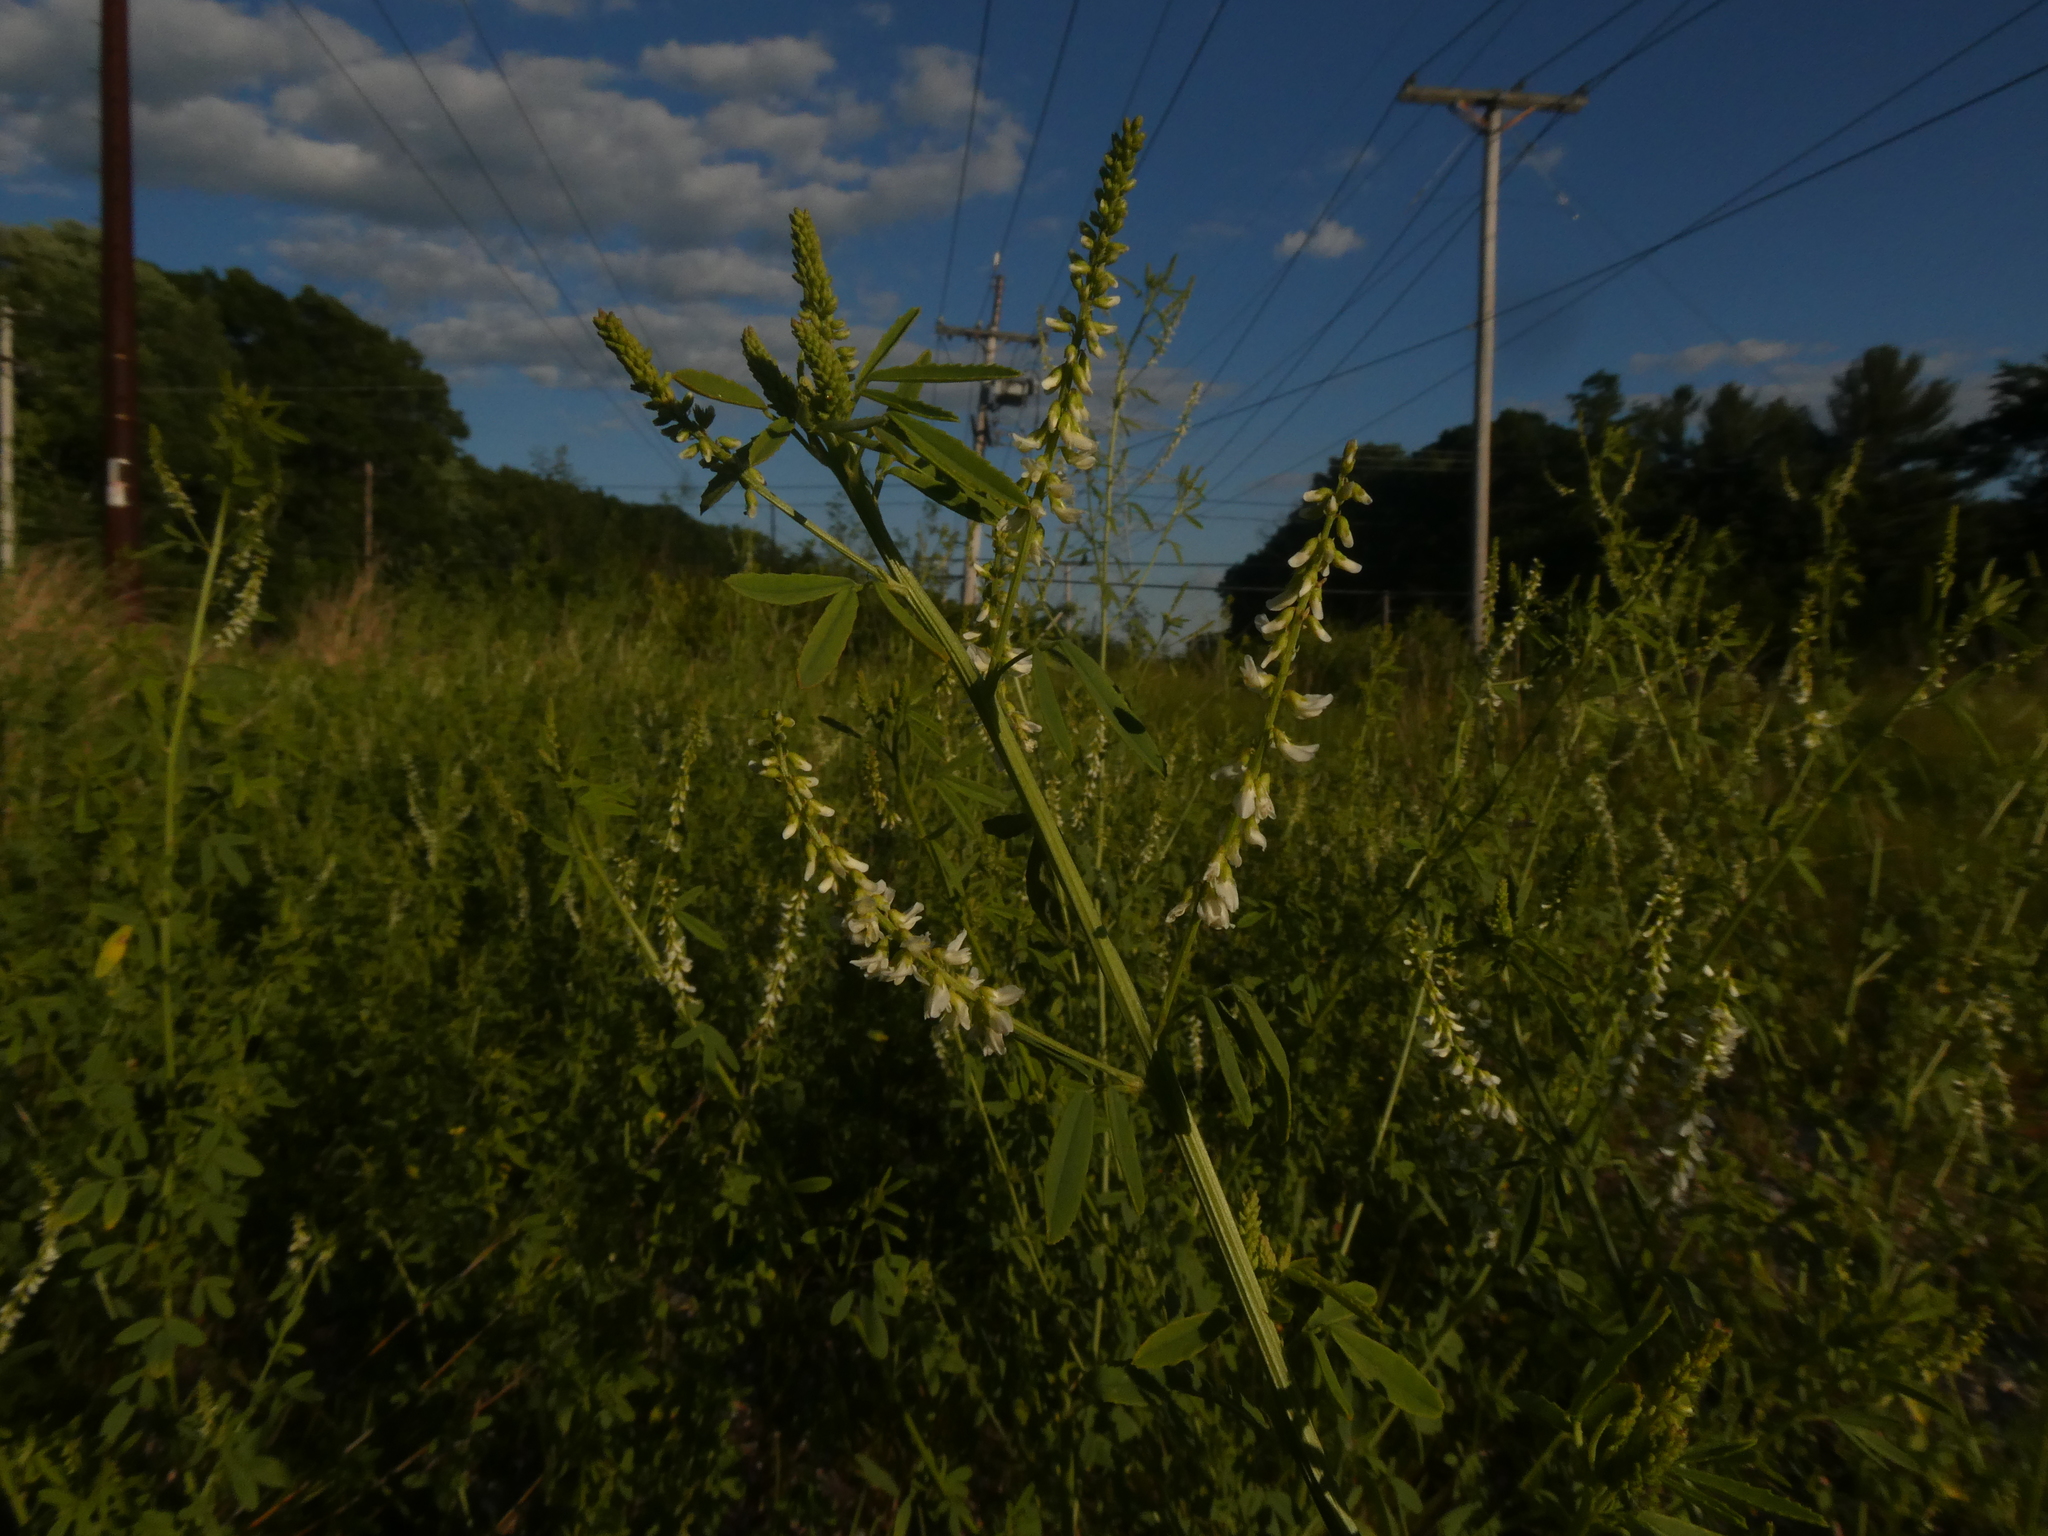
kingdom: Plantae
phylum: Tracheophyta
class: Magnoliopsida
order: Fabales
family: Fabaceae
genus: Melilotus
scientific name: Melilotus albus
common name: White melilot
